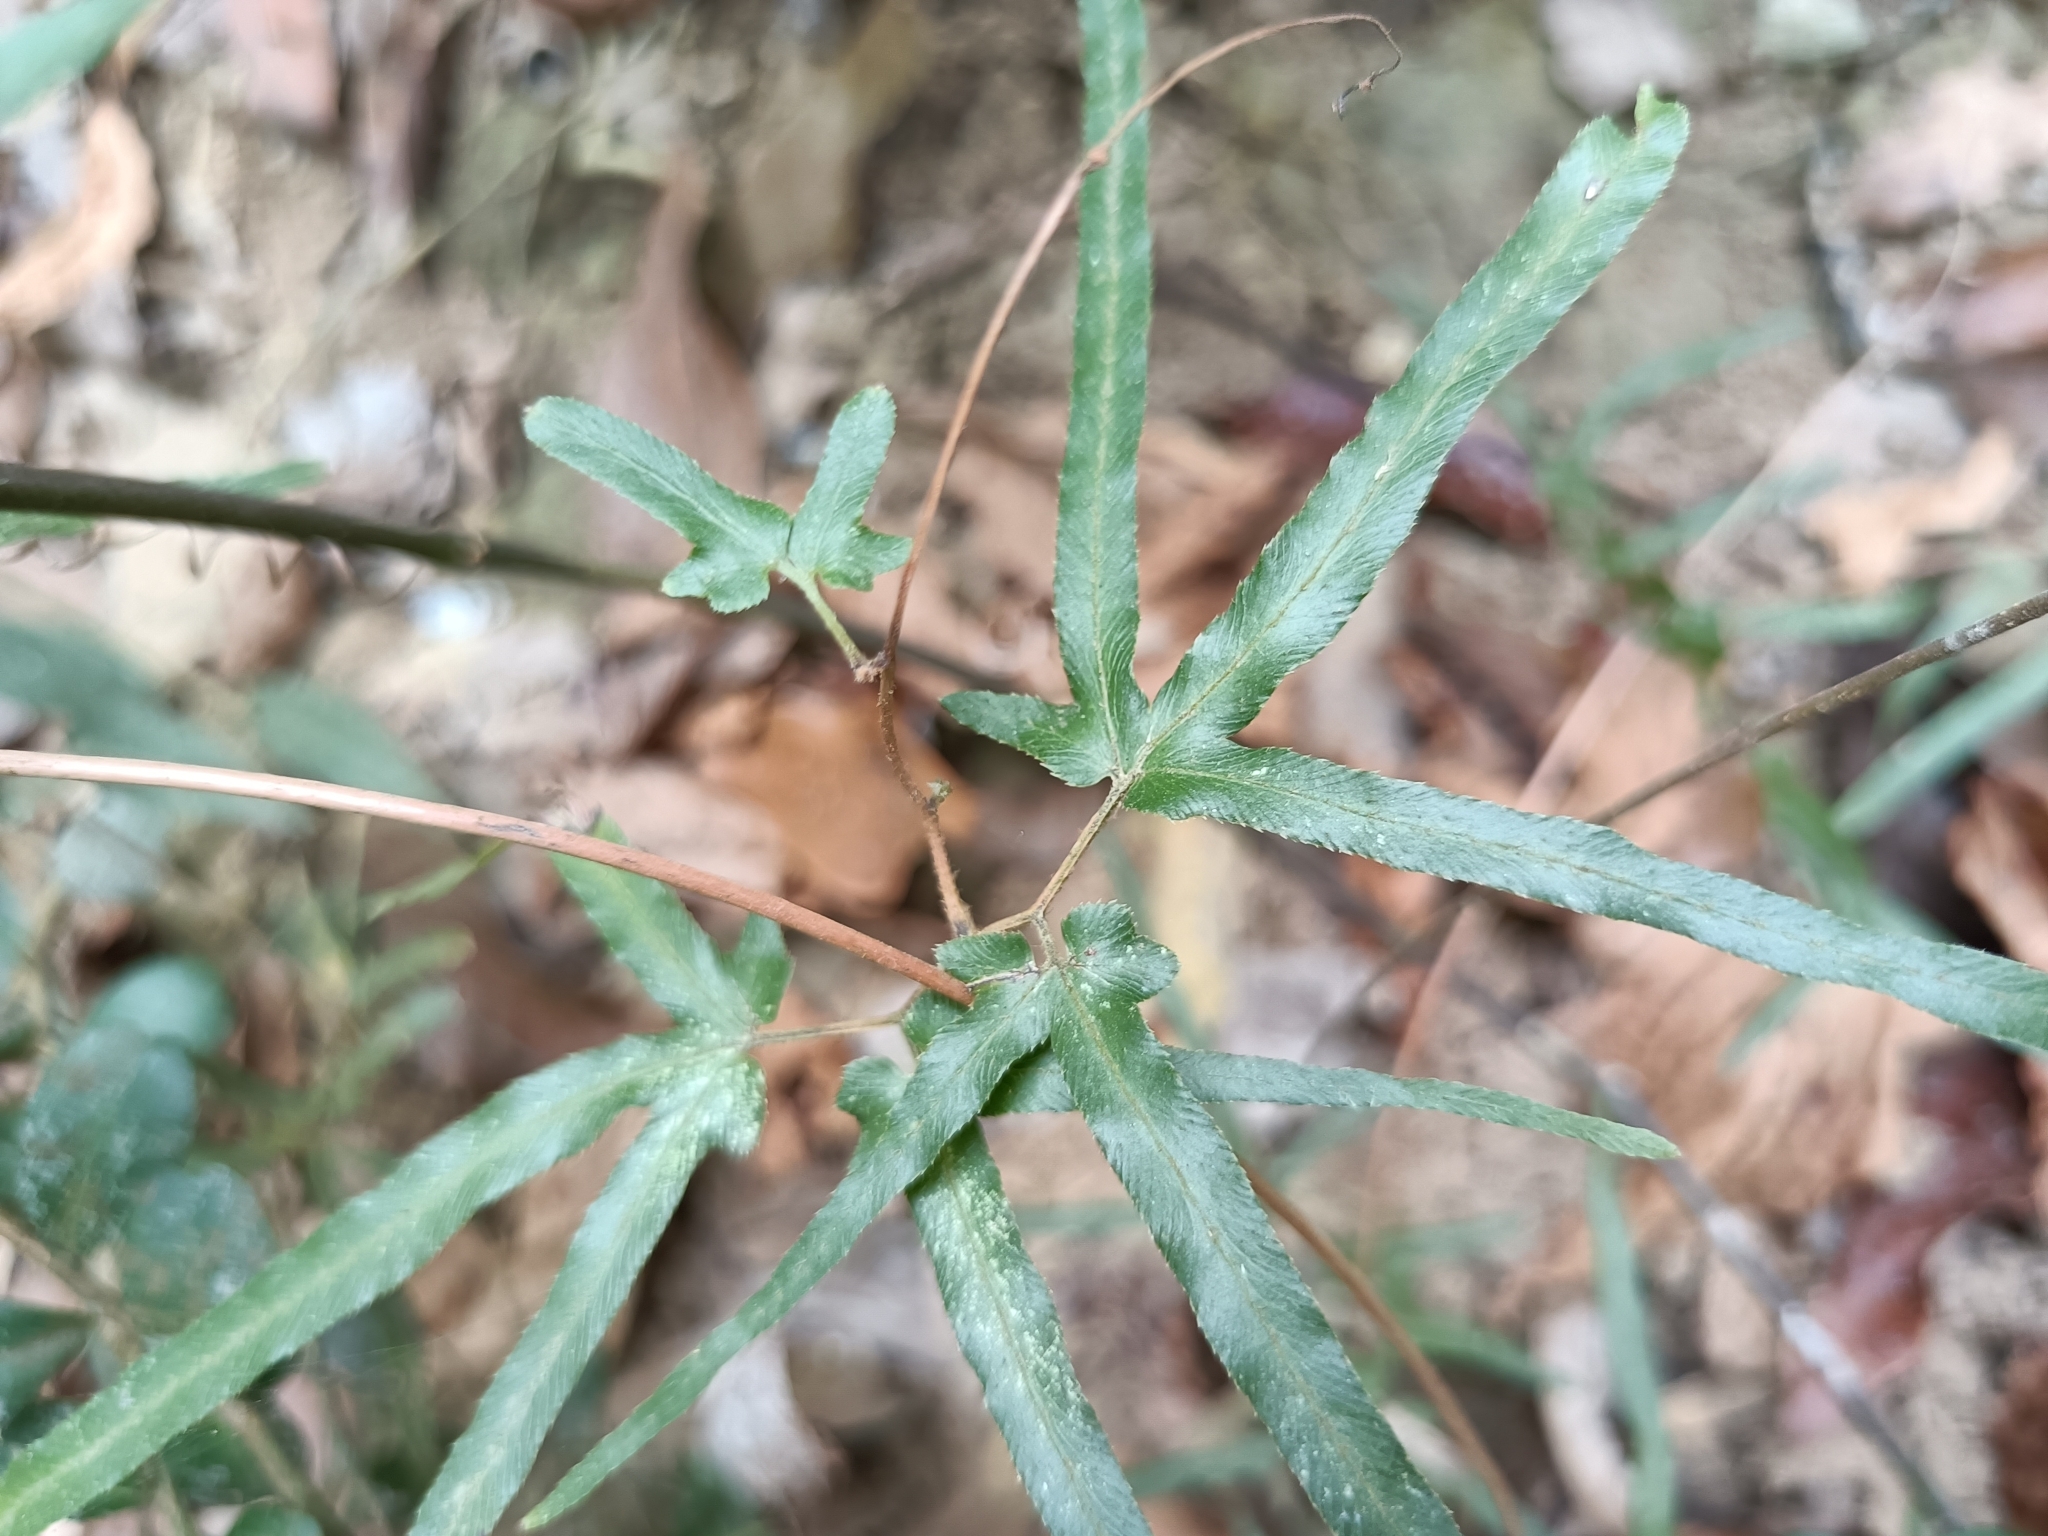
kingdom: Plantae
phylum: Tracheophyta
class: Polypodiopsida
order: Schizaeales
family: Lygodiaceae
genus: Lygodium
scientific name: Lygodium japonicum
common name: Japanese climbing fern
